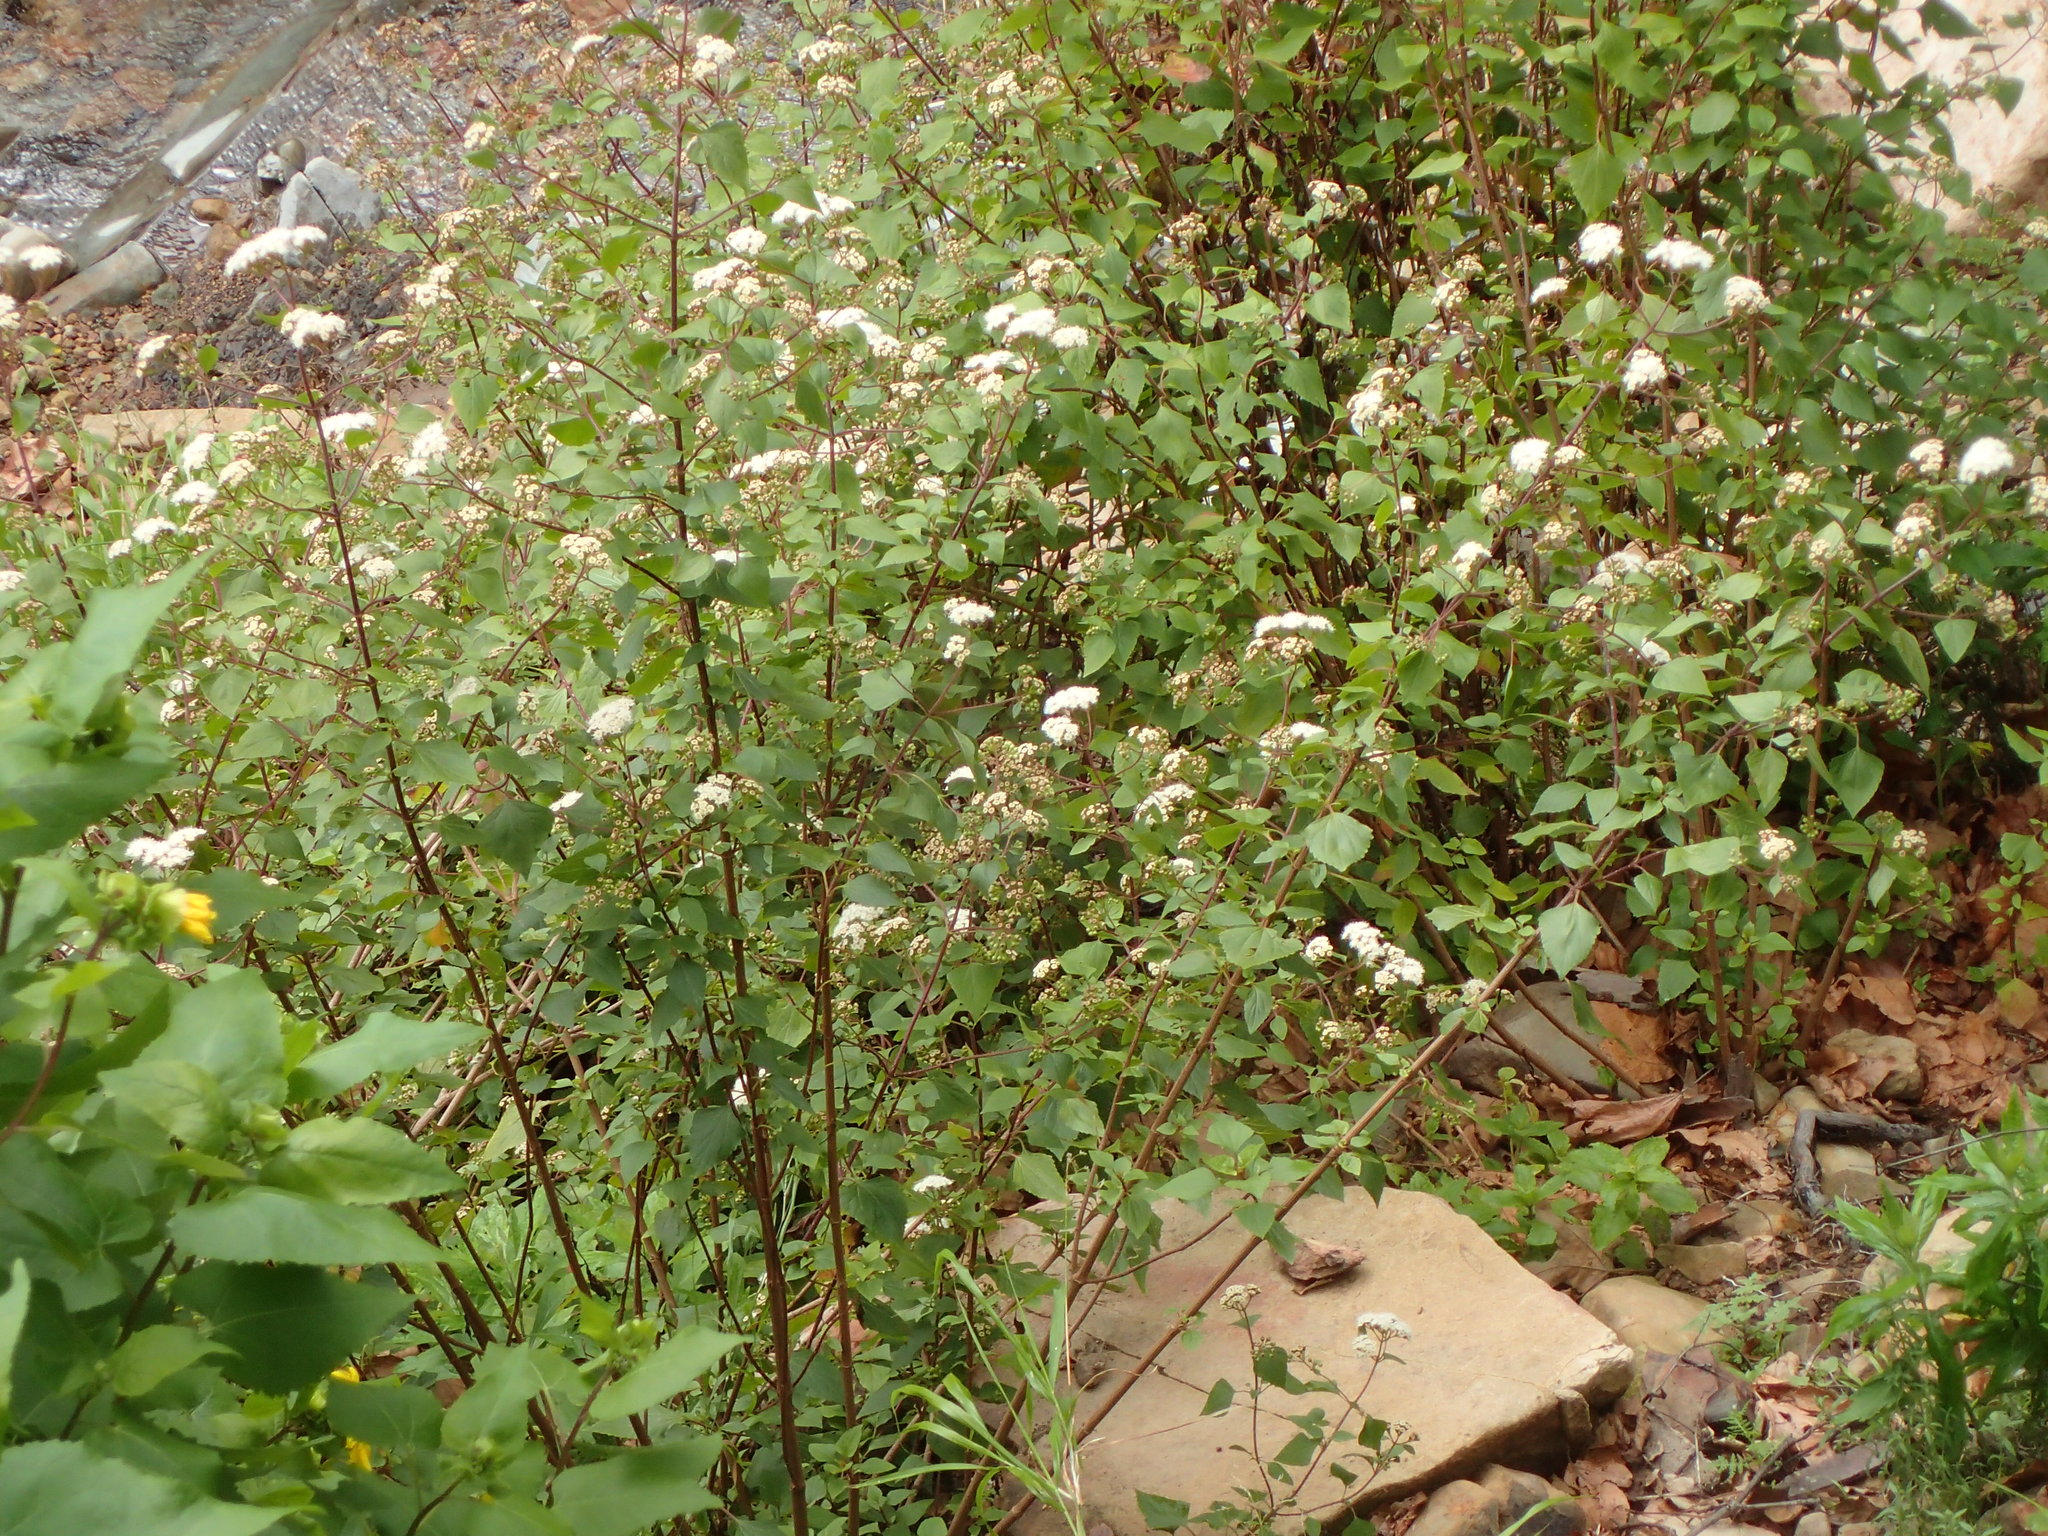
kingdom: Plantae
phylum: Tracheophyta
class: Magnoliopsida
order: Asterales
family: Asteraceae
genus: Ageratina
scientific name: Ageratina adenophora
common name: Sticky snakeroot
